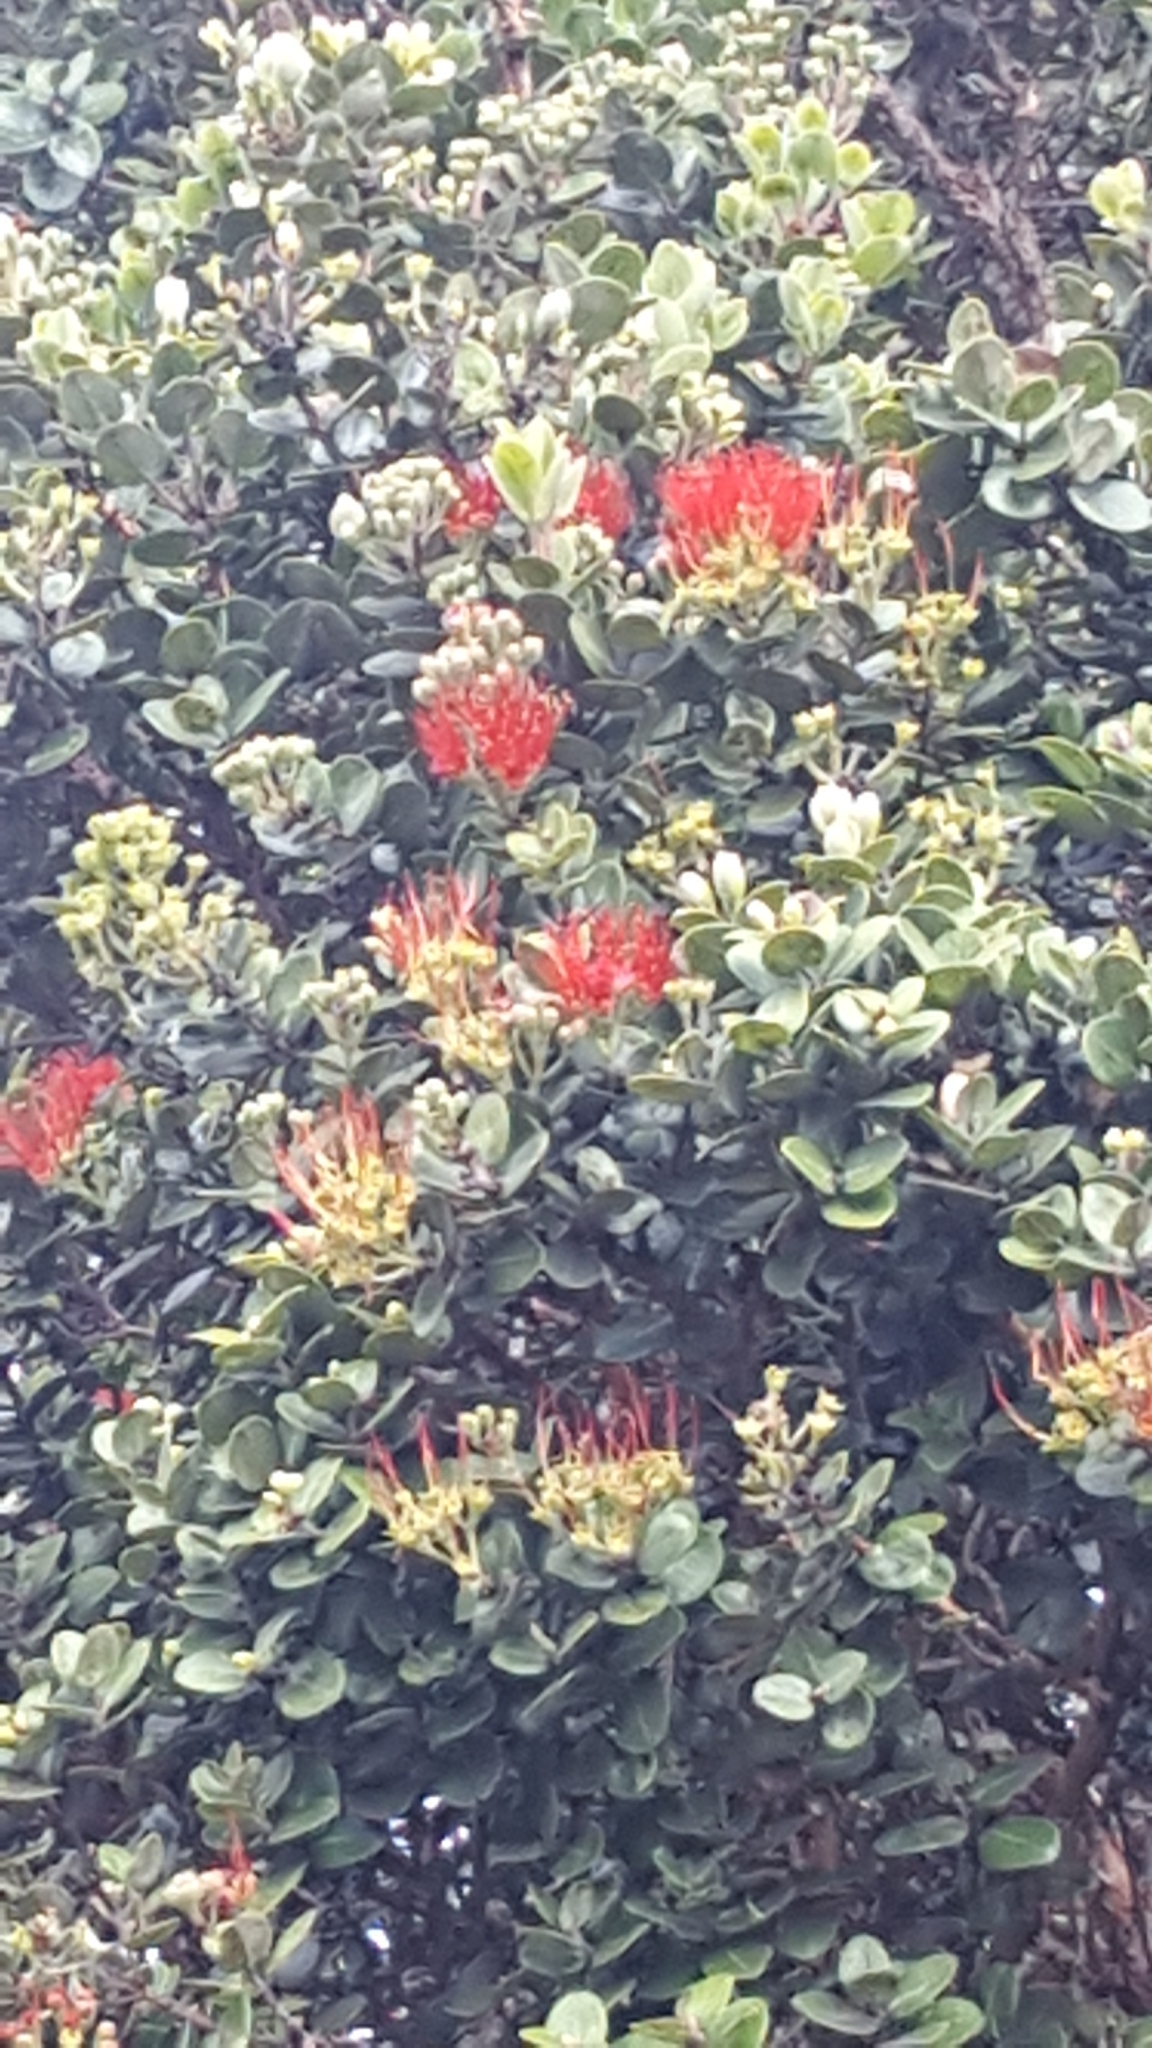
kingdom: Plantae
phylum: Tracheophyta
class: Magnoliopsida
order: Myrtales
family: Myrtaceae
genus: Metrosideros
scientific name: Metrosideros polymorpha
